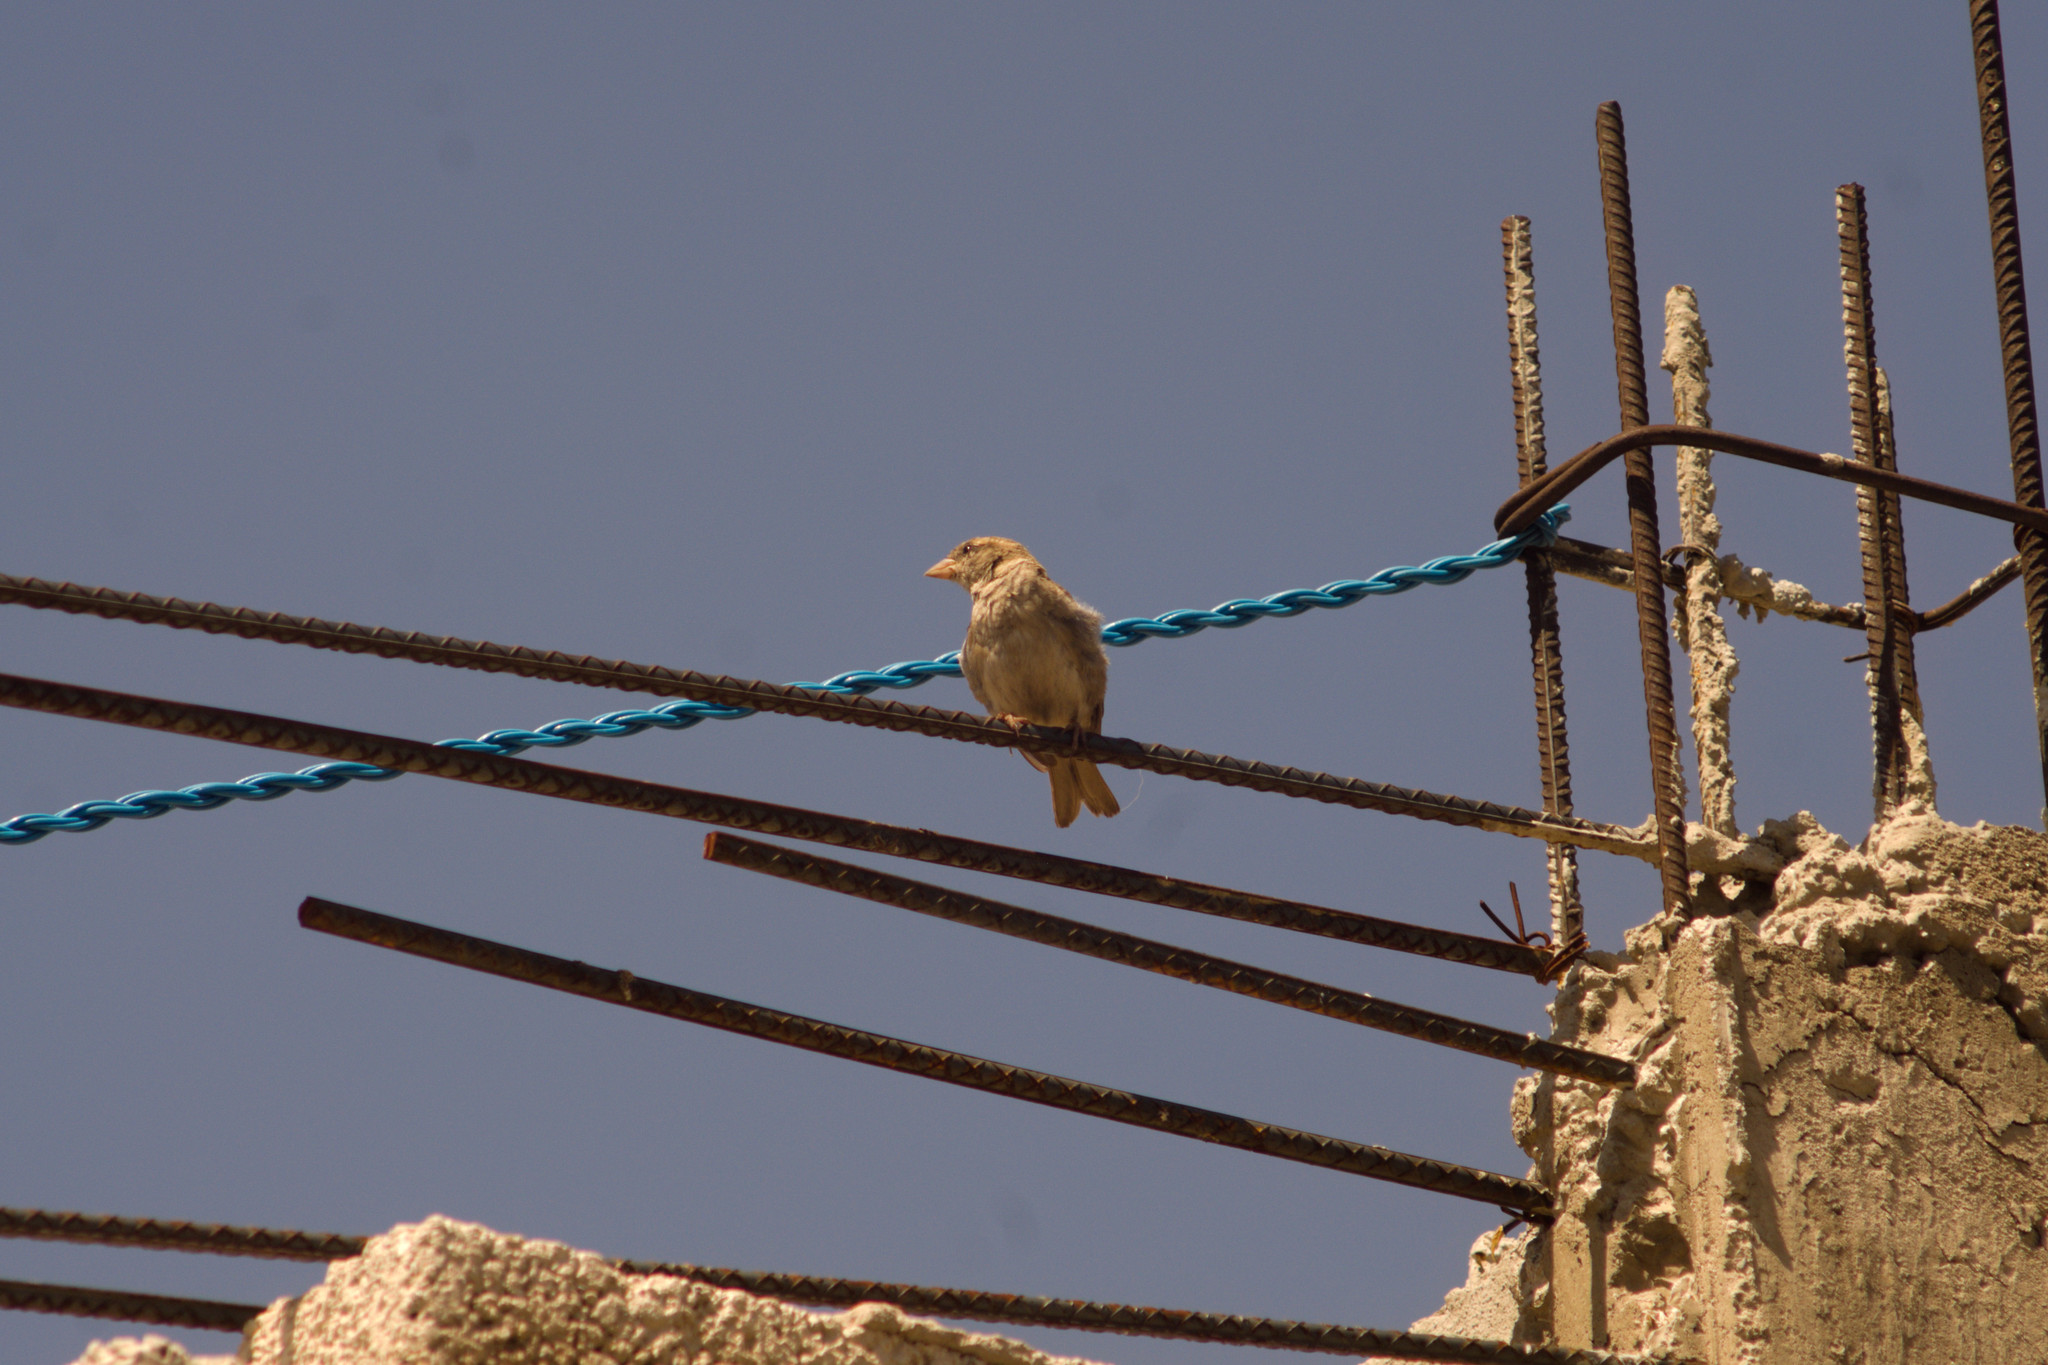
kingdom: Animalia
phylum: Chordata
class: Aves
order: Passeriformes
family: Passeridae
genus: Passer
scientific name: Passer domesticus
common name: House sparrow
